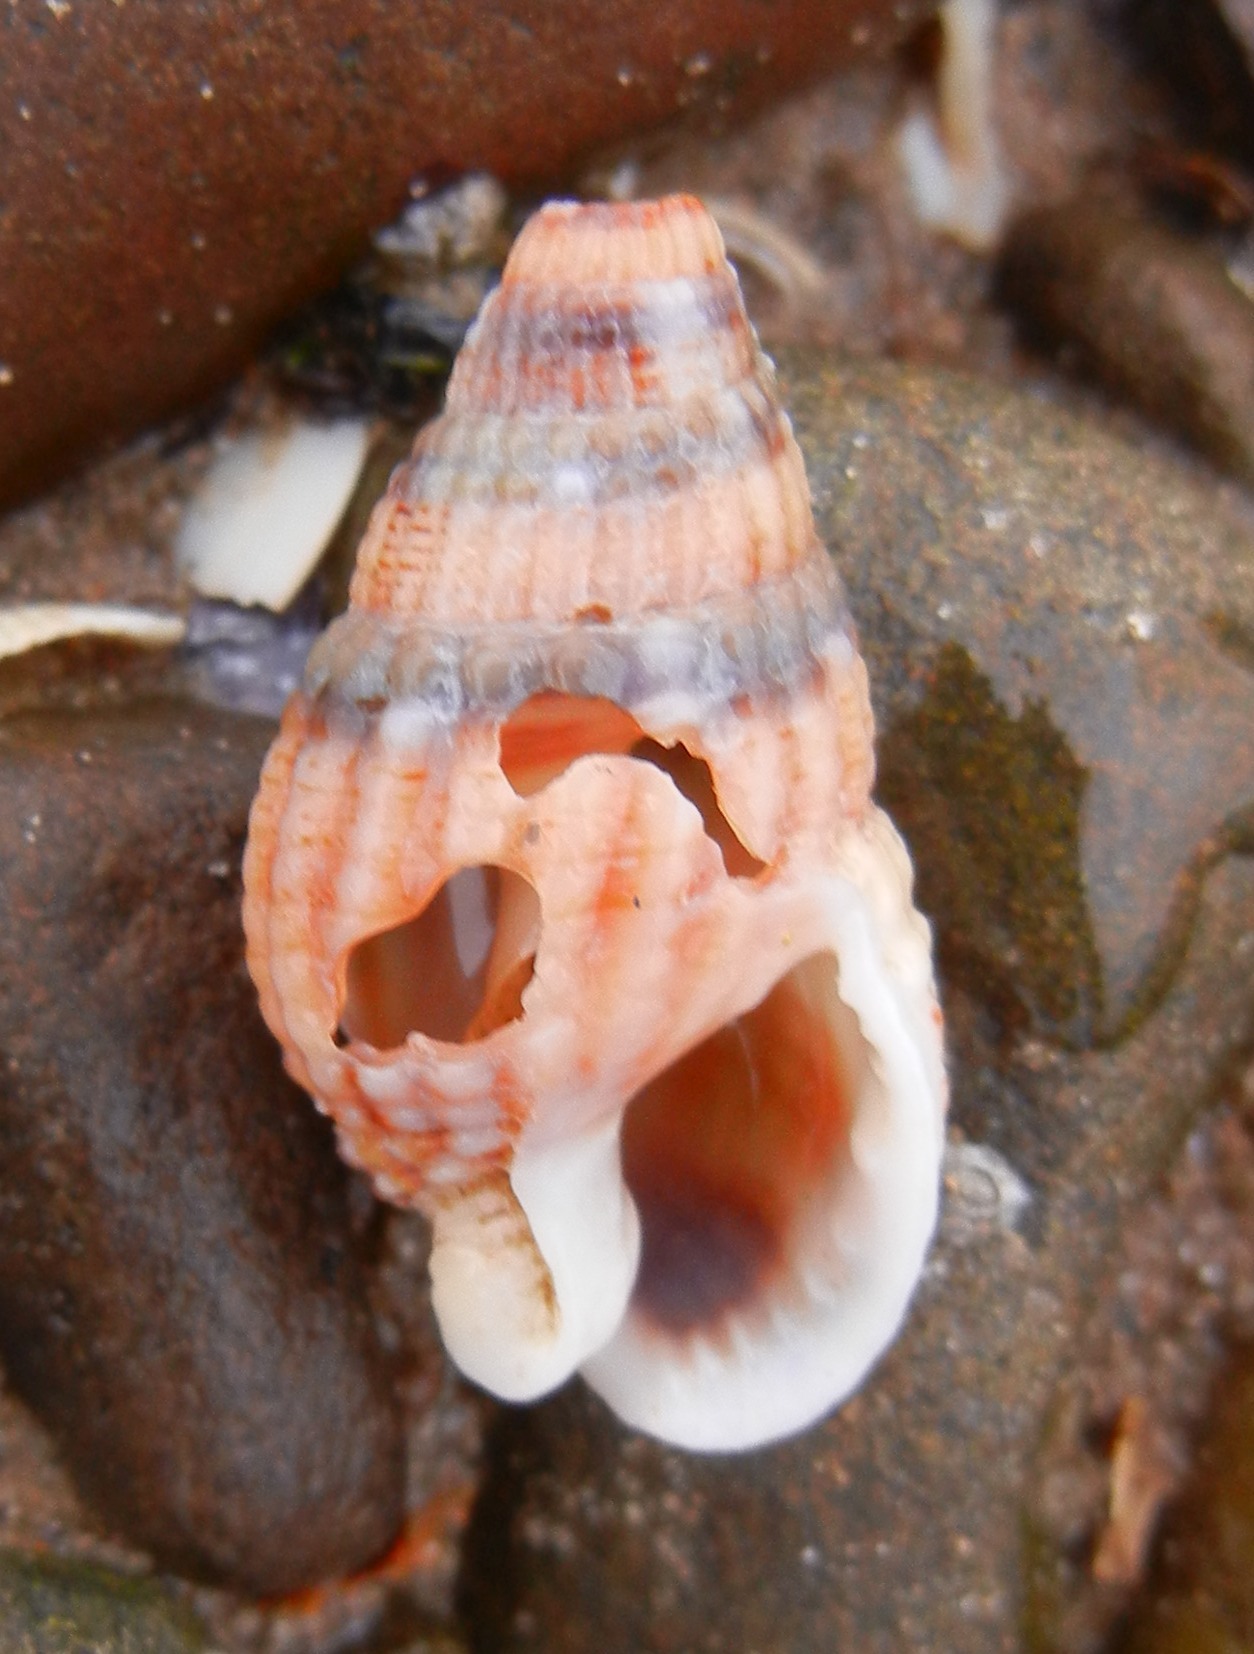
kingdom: Animalia
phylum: Mollusca
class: Gastropoda
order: Neogastropoda
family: Nassariidae
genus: Tritia
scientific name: Tritia reticulata
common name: Netted dog whelk
